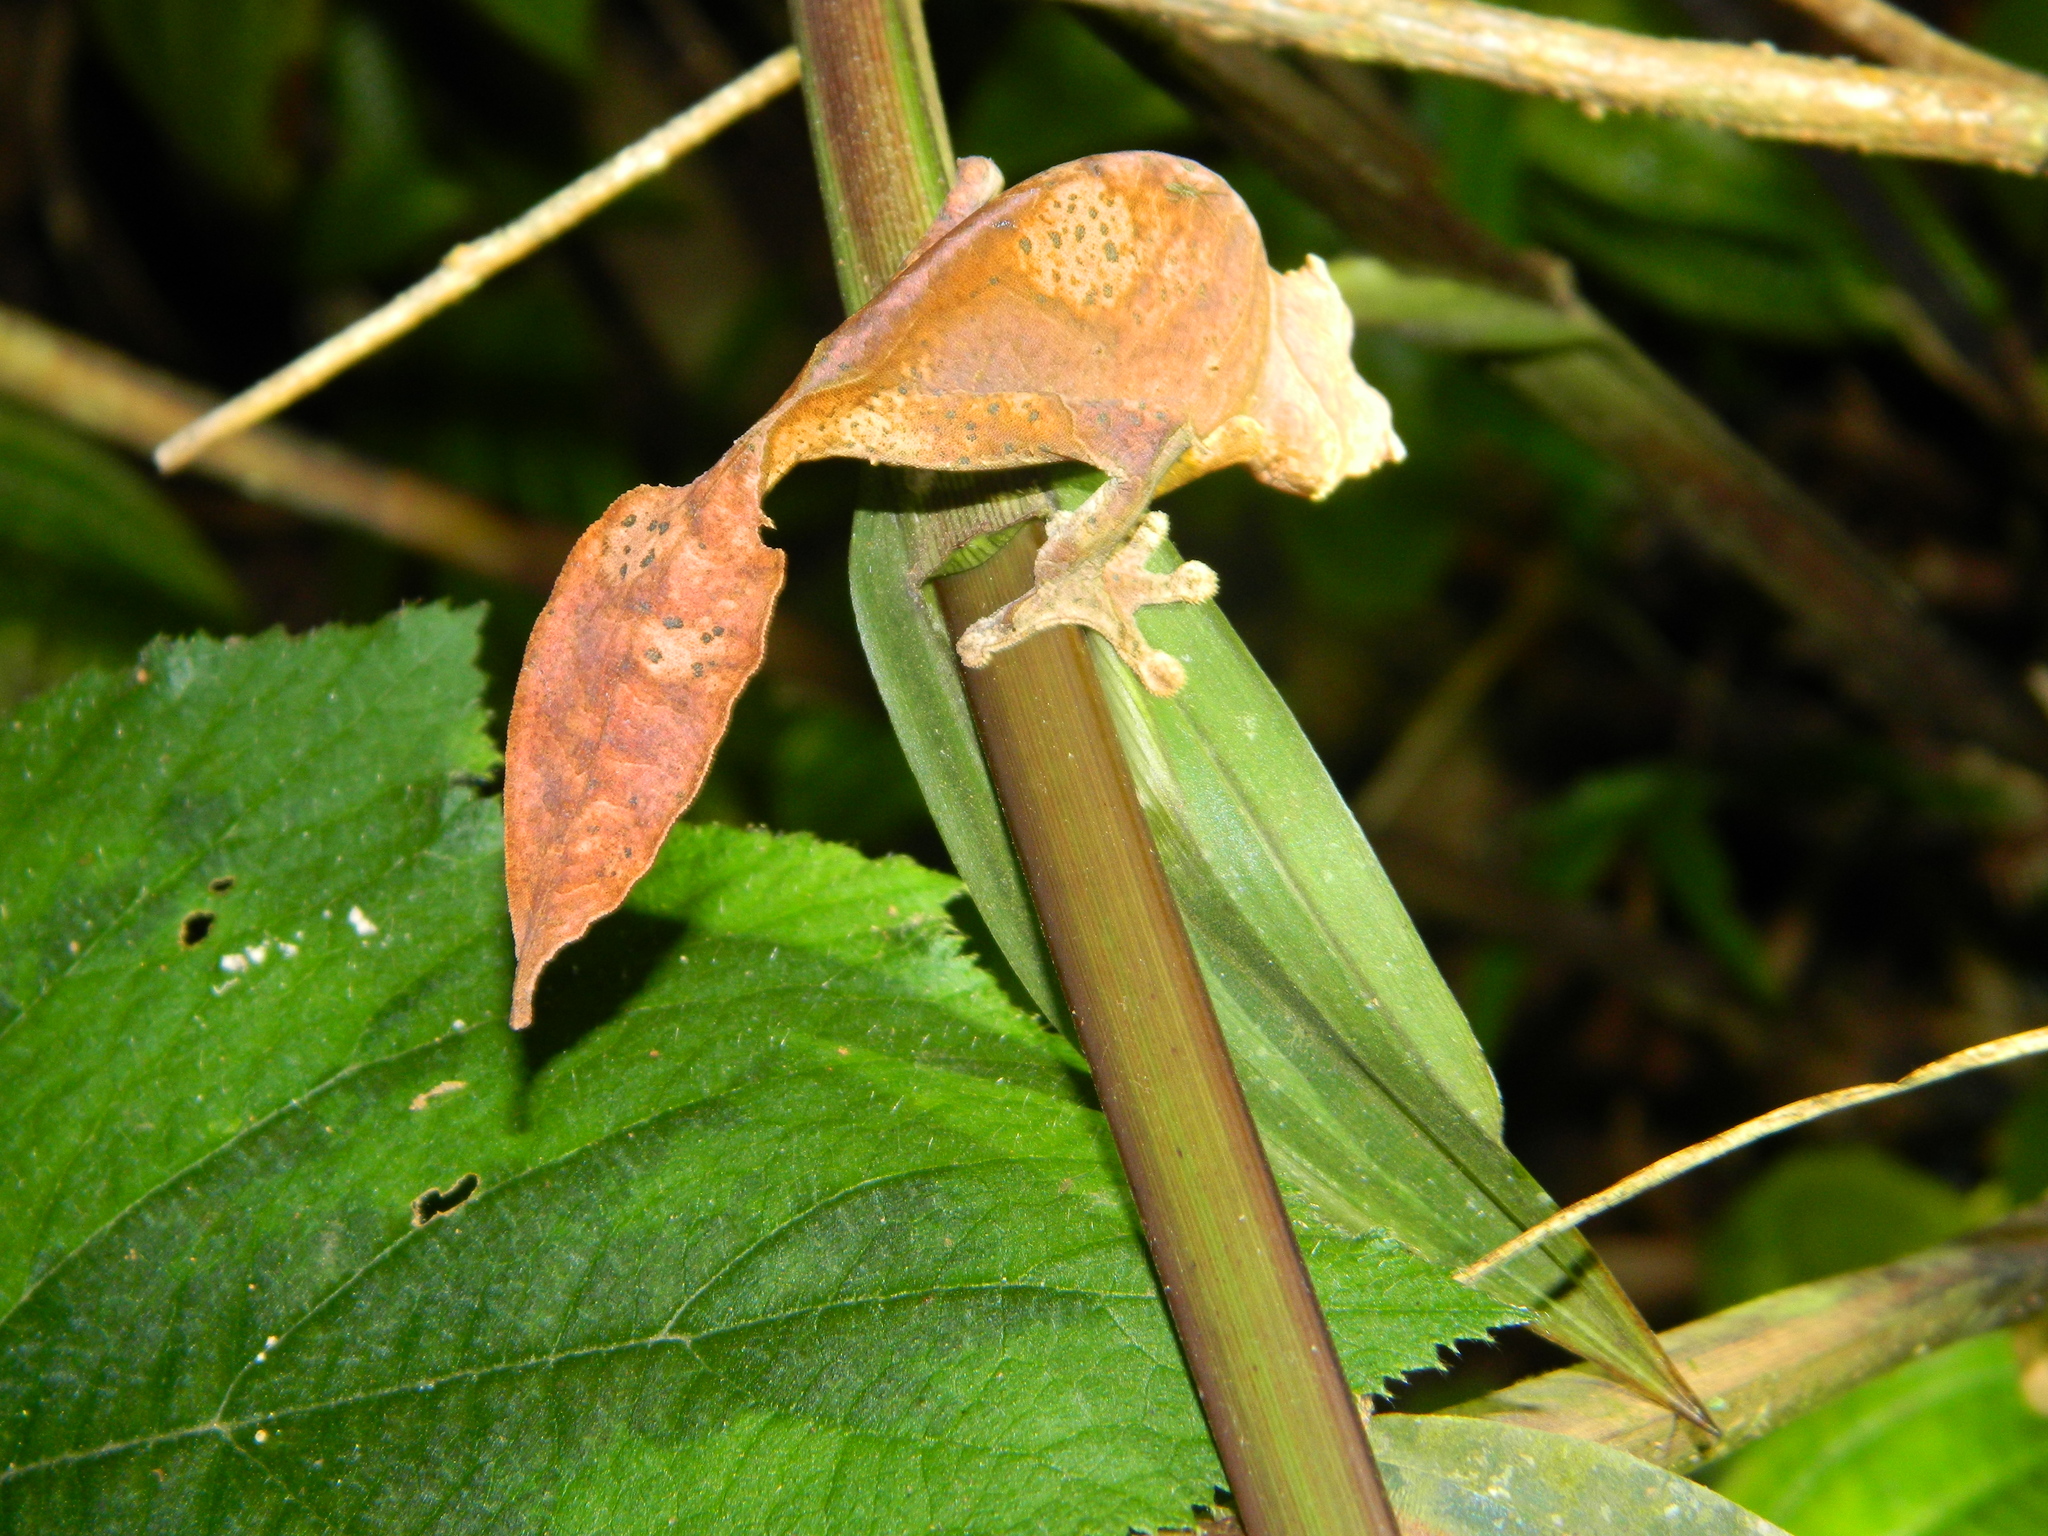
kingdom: Animalia
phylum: Chordata
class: Squamata
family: Gekkonidae
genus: Uroplatus
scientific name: Uroplatus phantasticus
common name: Phantastic leaf-tailed gecko
